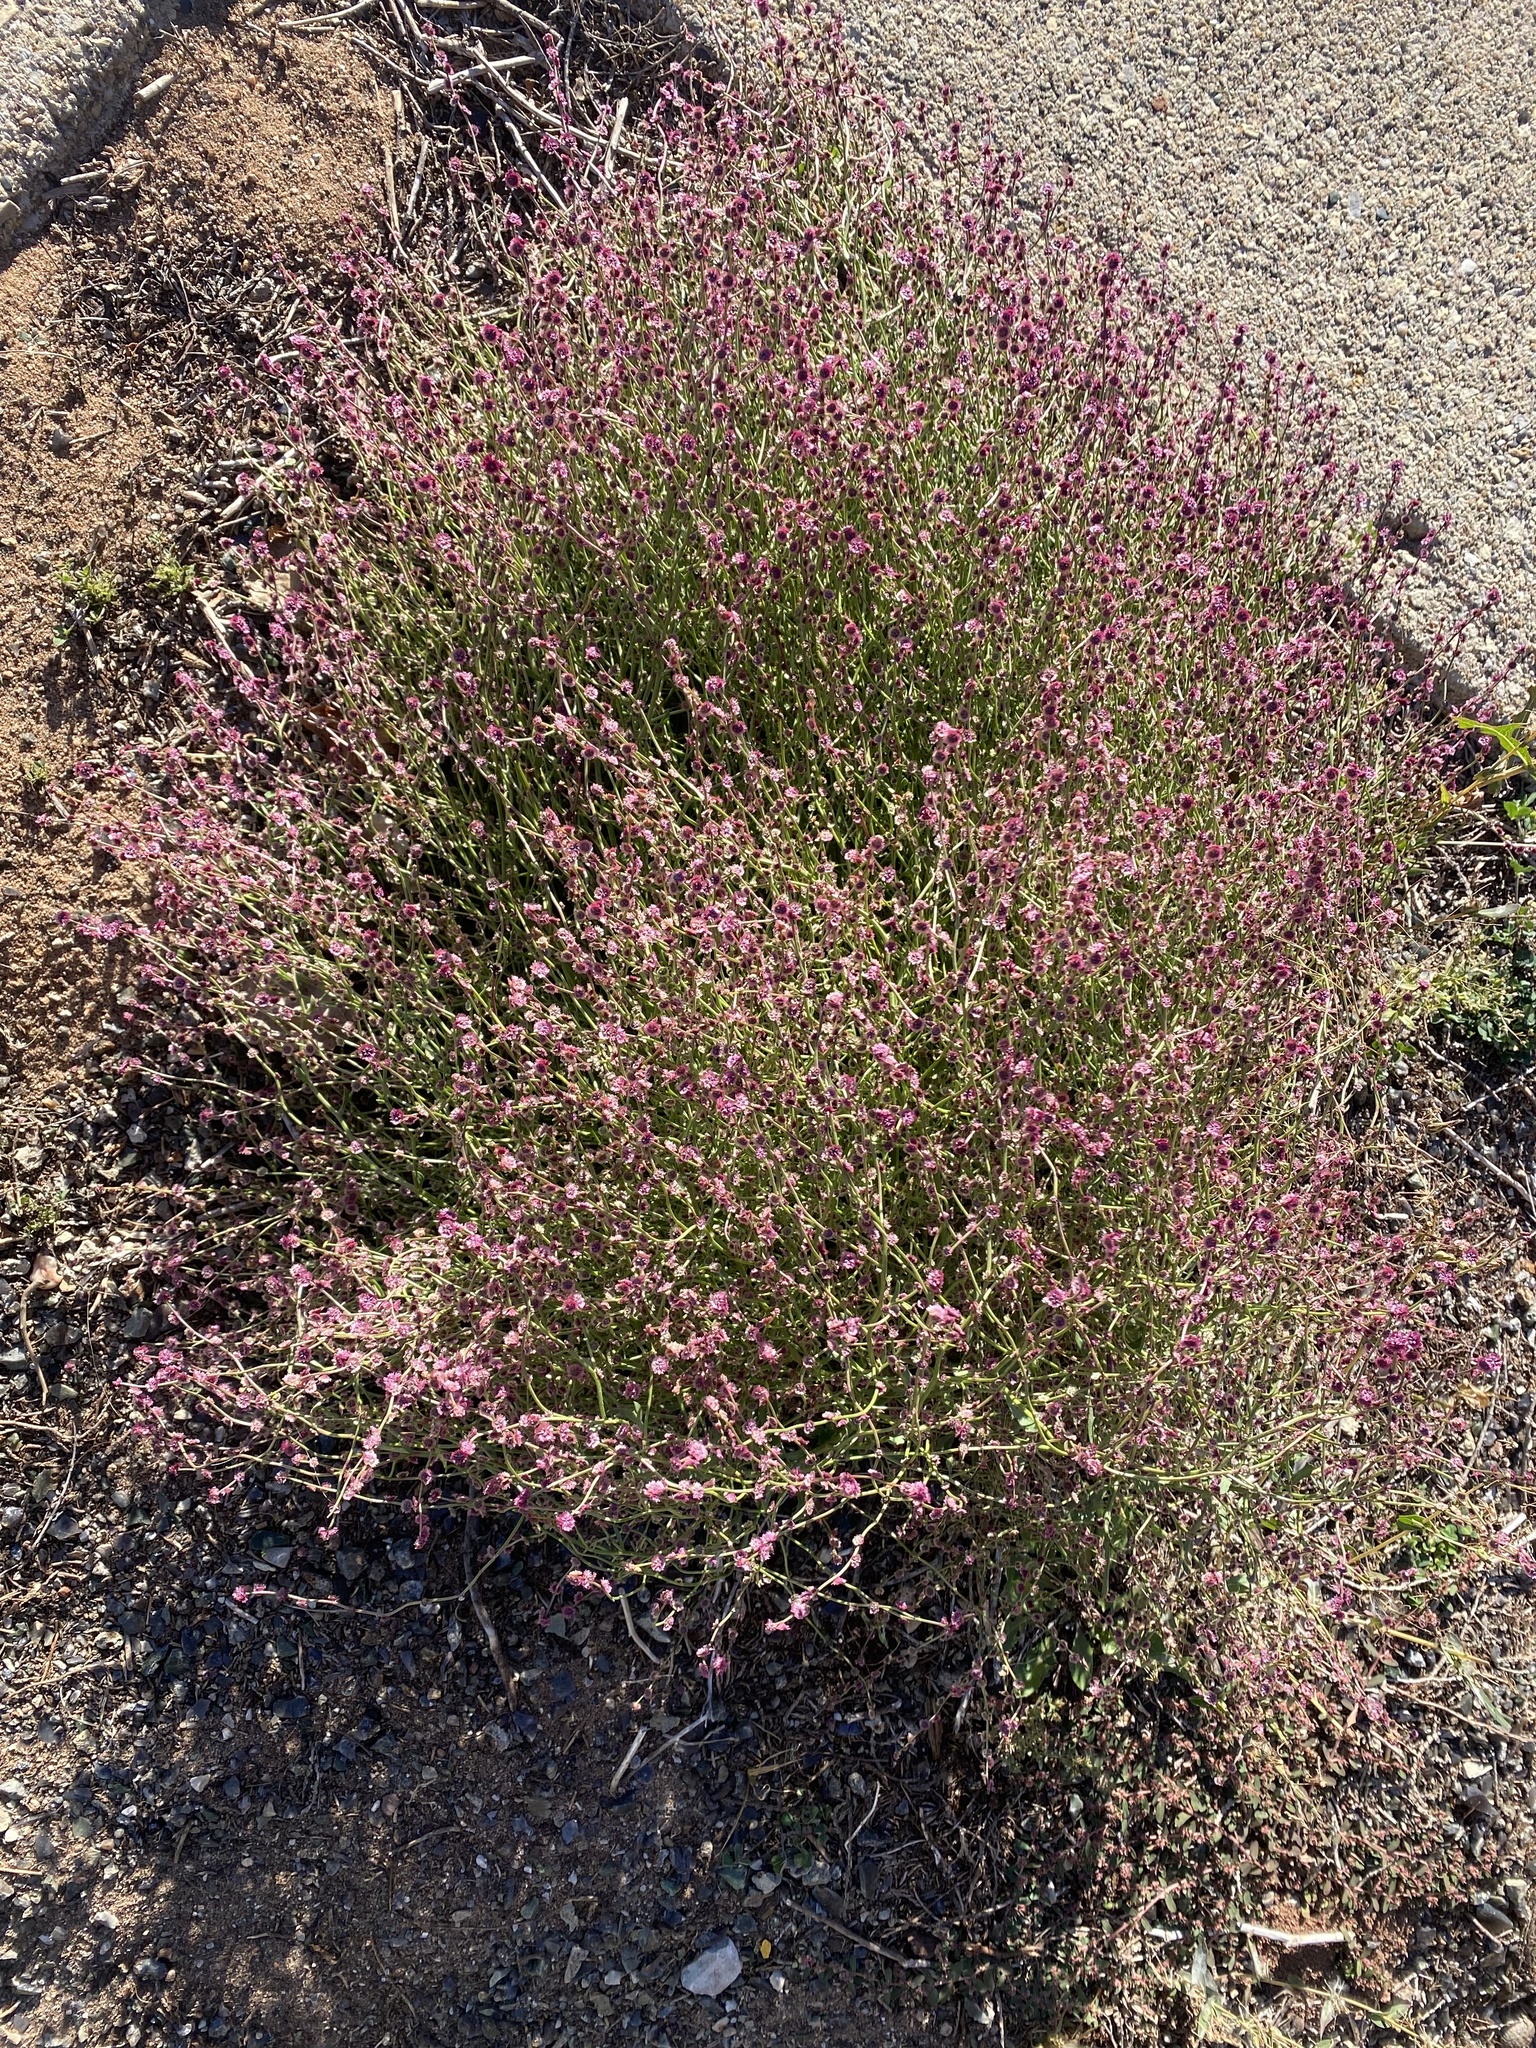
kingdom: Plantae
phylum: Tracheophyta
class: Magnoliopsida
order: Caryophyllales
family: Amaranthaceae
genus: Dysphania
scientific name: Dysphania atriplicifolia
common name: Plains tumbleweed
